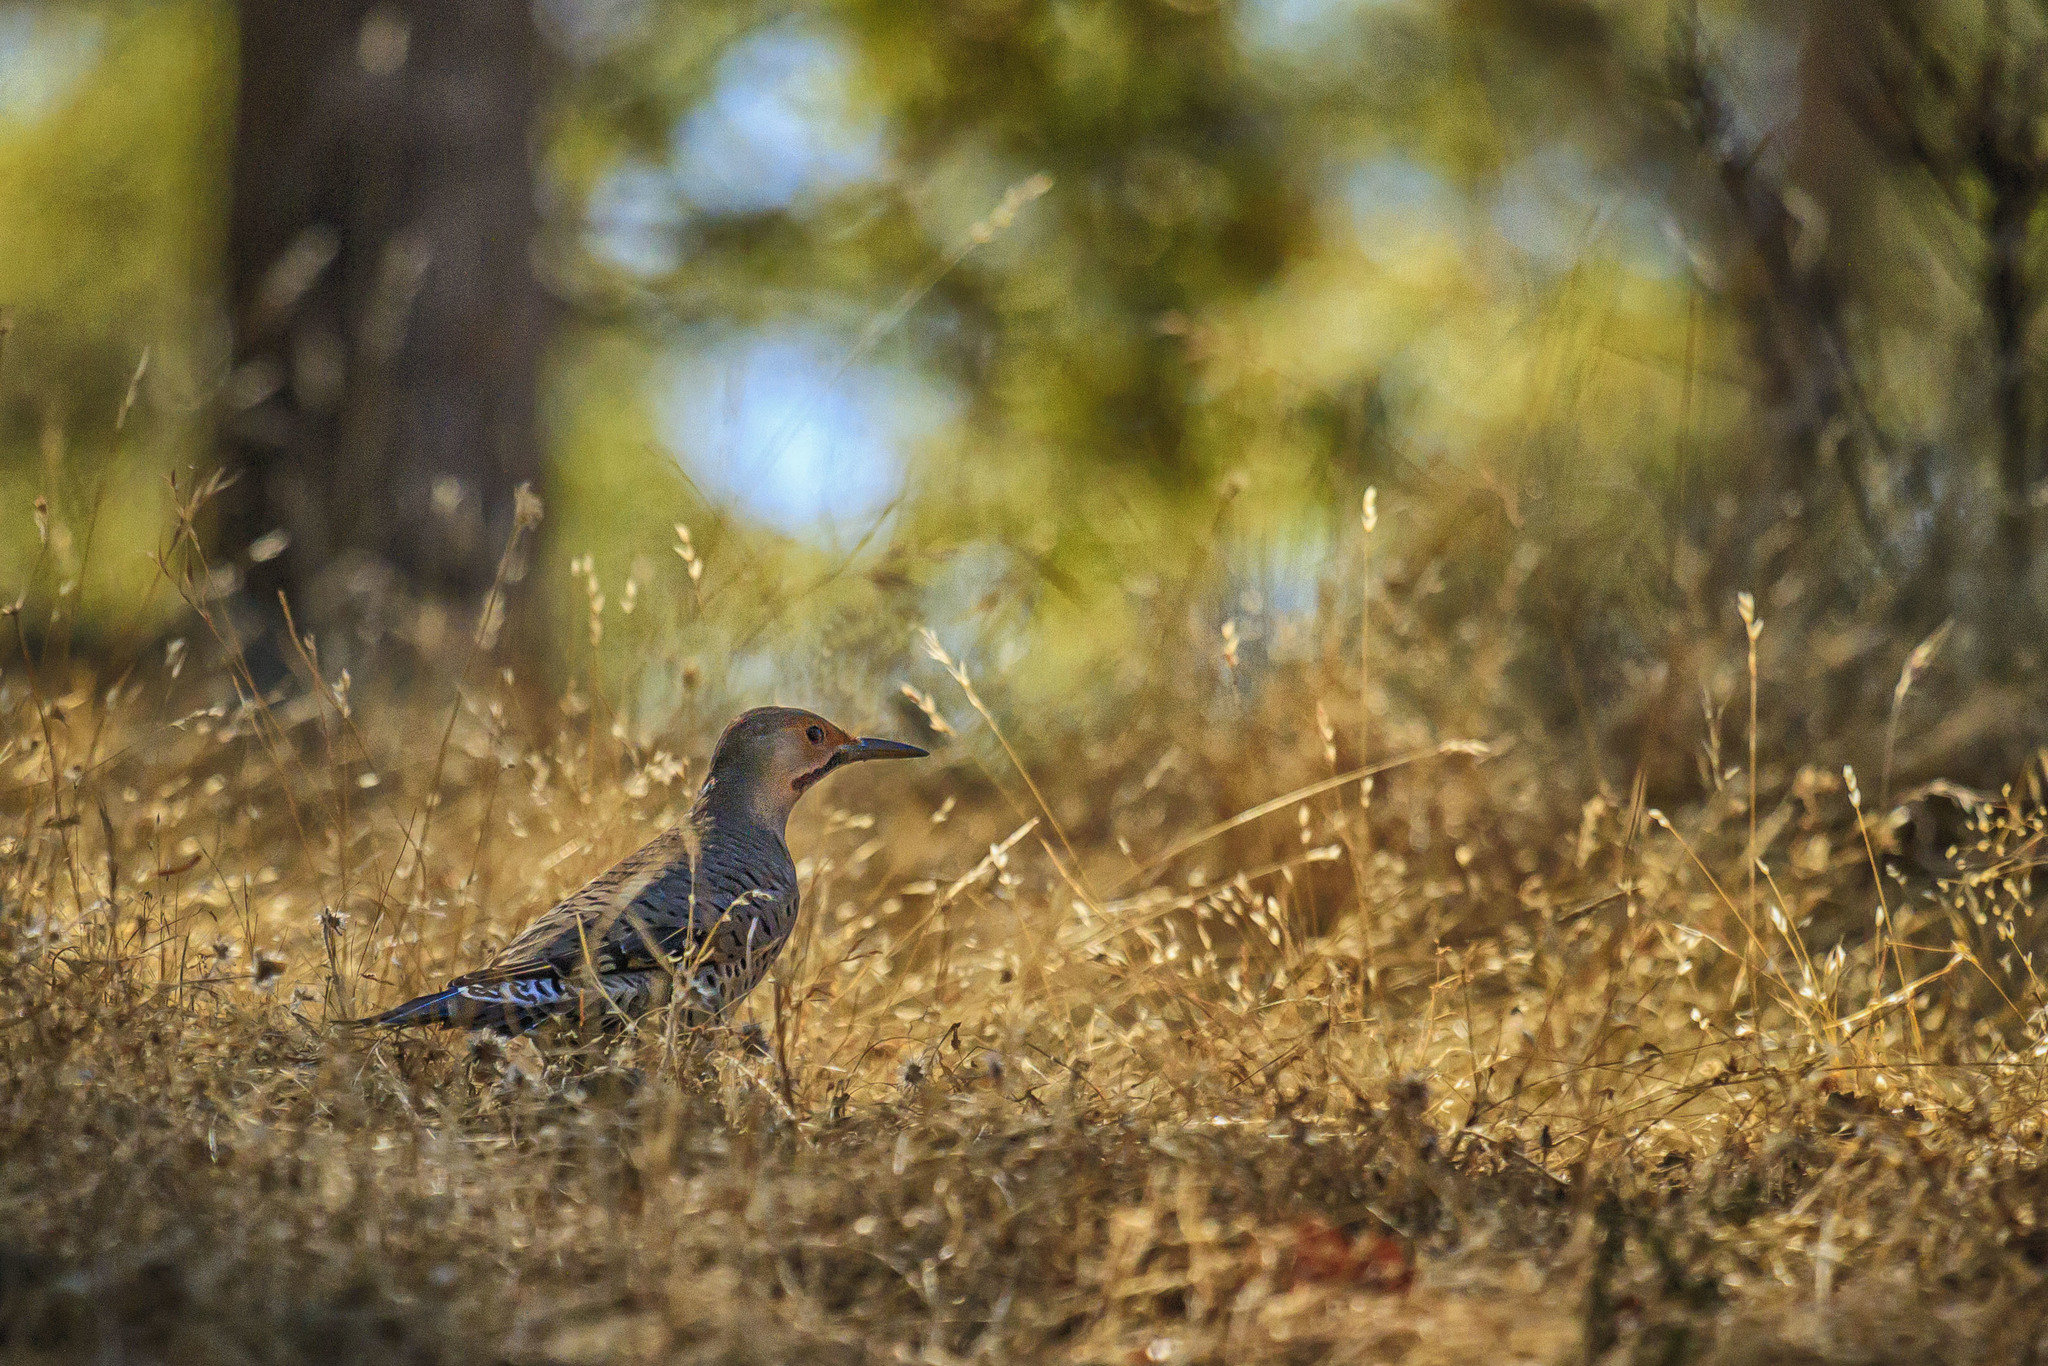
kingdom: Animalia
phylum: Chordata
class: Aves
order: Piciformes
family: Picidae
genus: Colaptes
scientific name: Colaptes auratus
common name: Northern flicker
